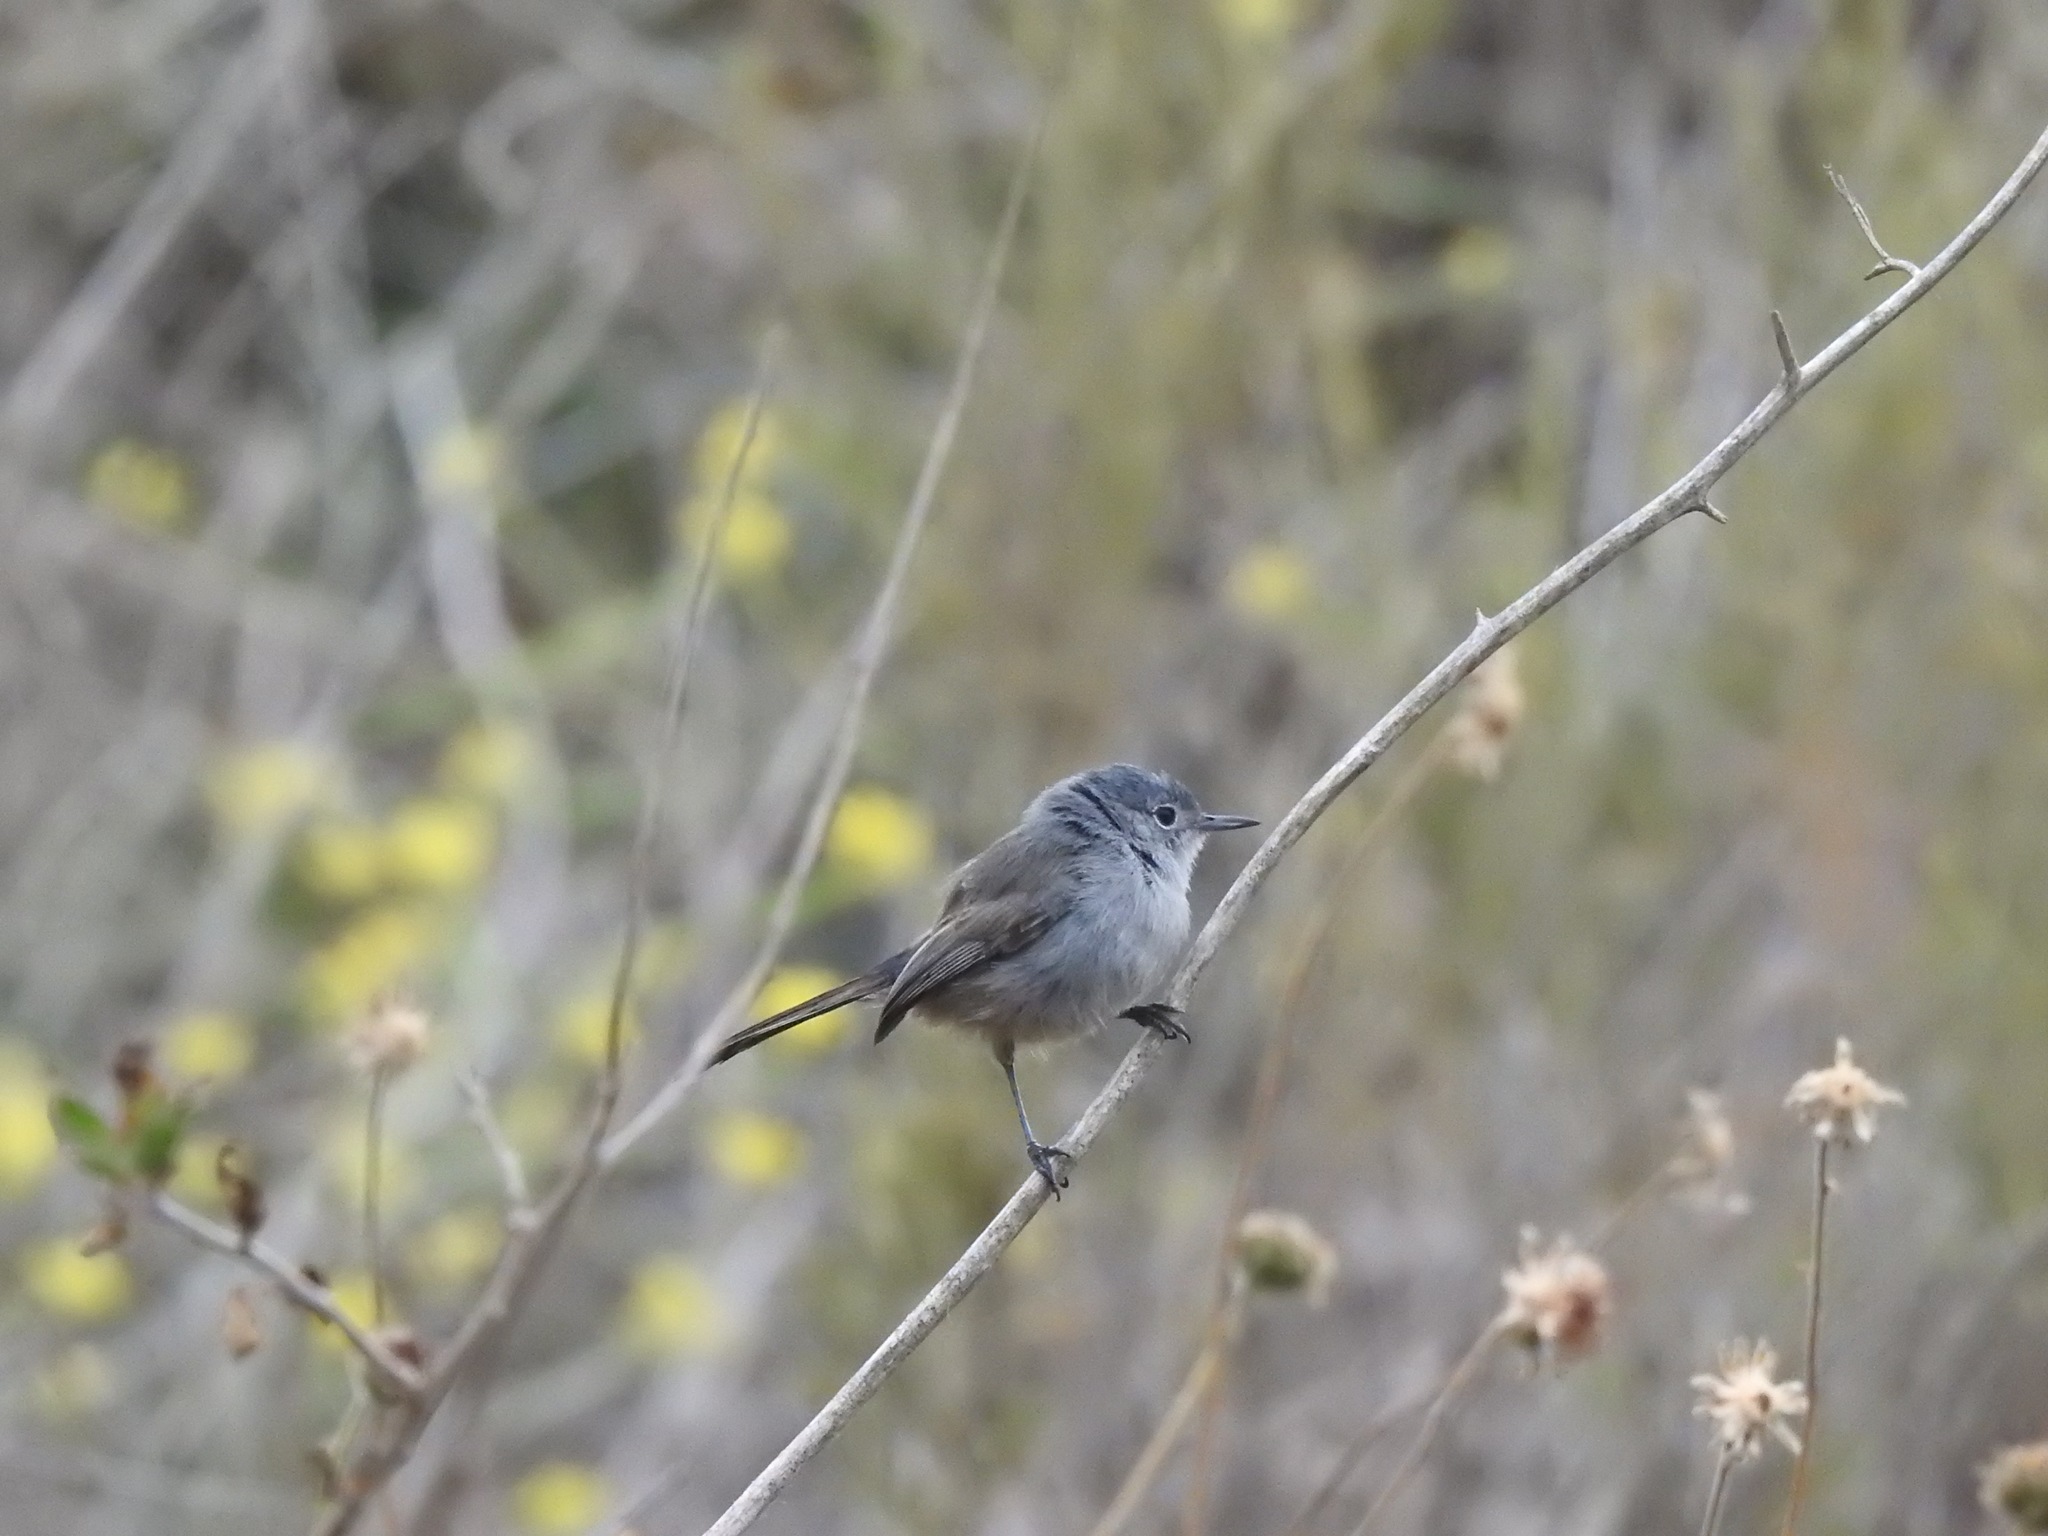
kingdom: Animalia
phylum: Chordata
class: Aves
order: Passeriformes
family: Polioptilidae
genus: Polioptila
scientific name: Polioptila californica
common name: California gnatcatcher
